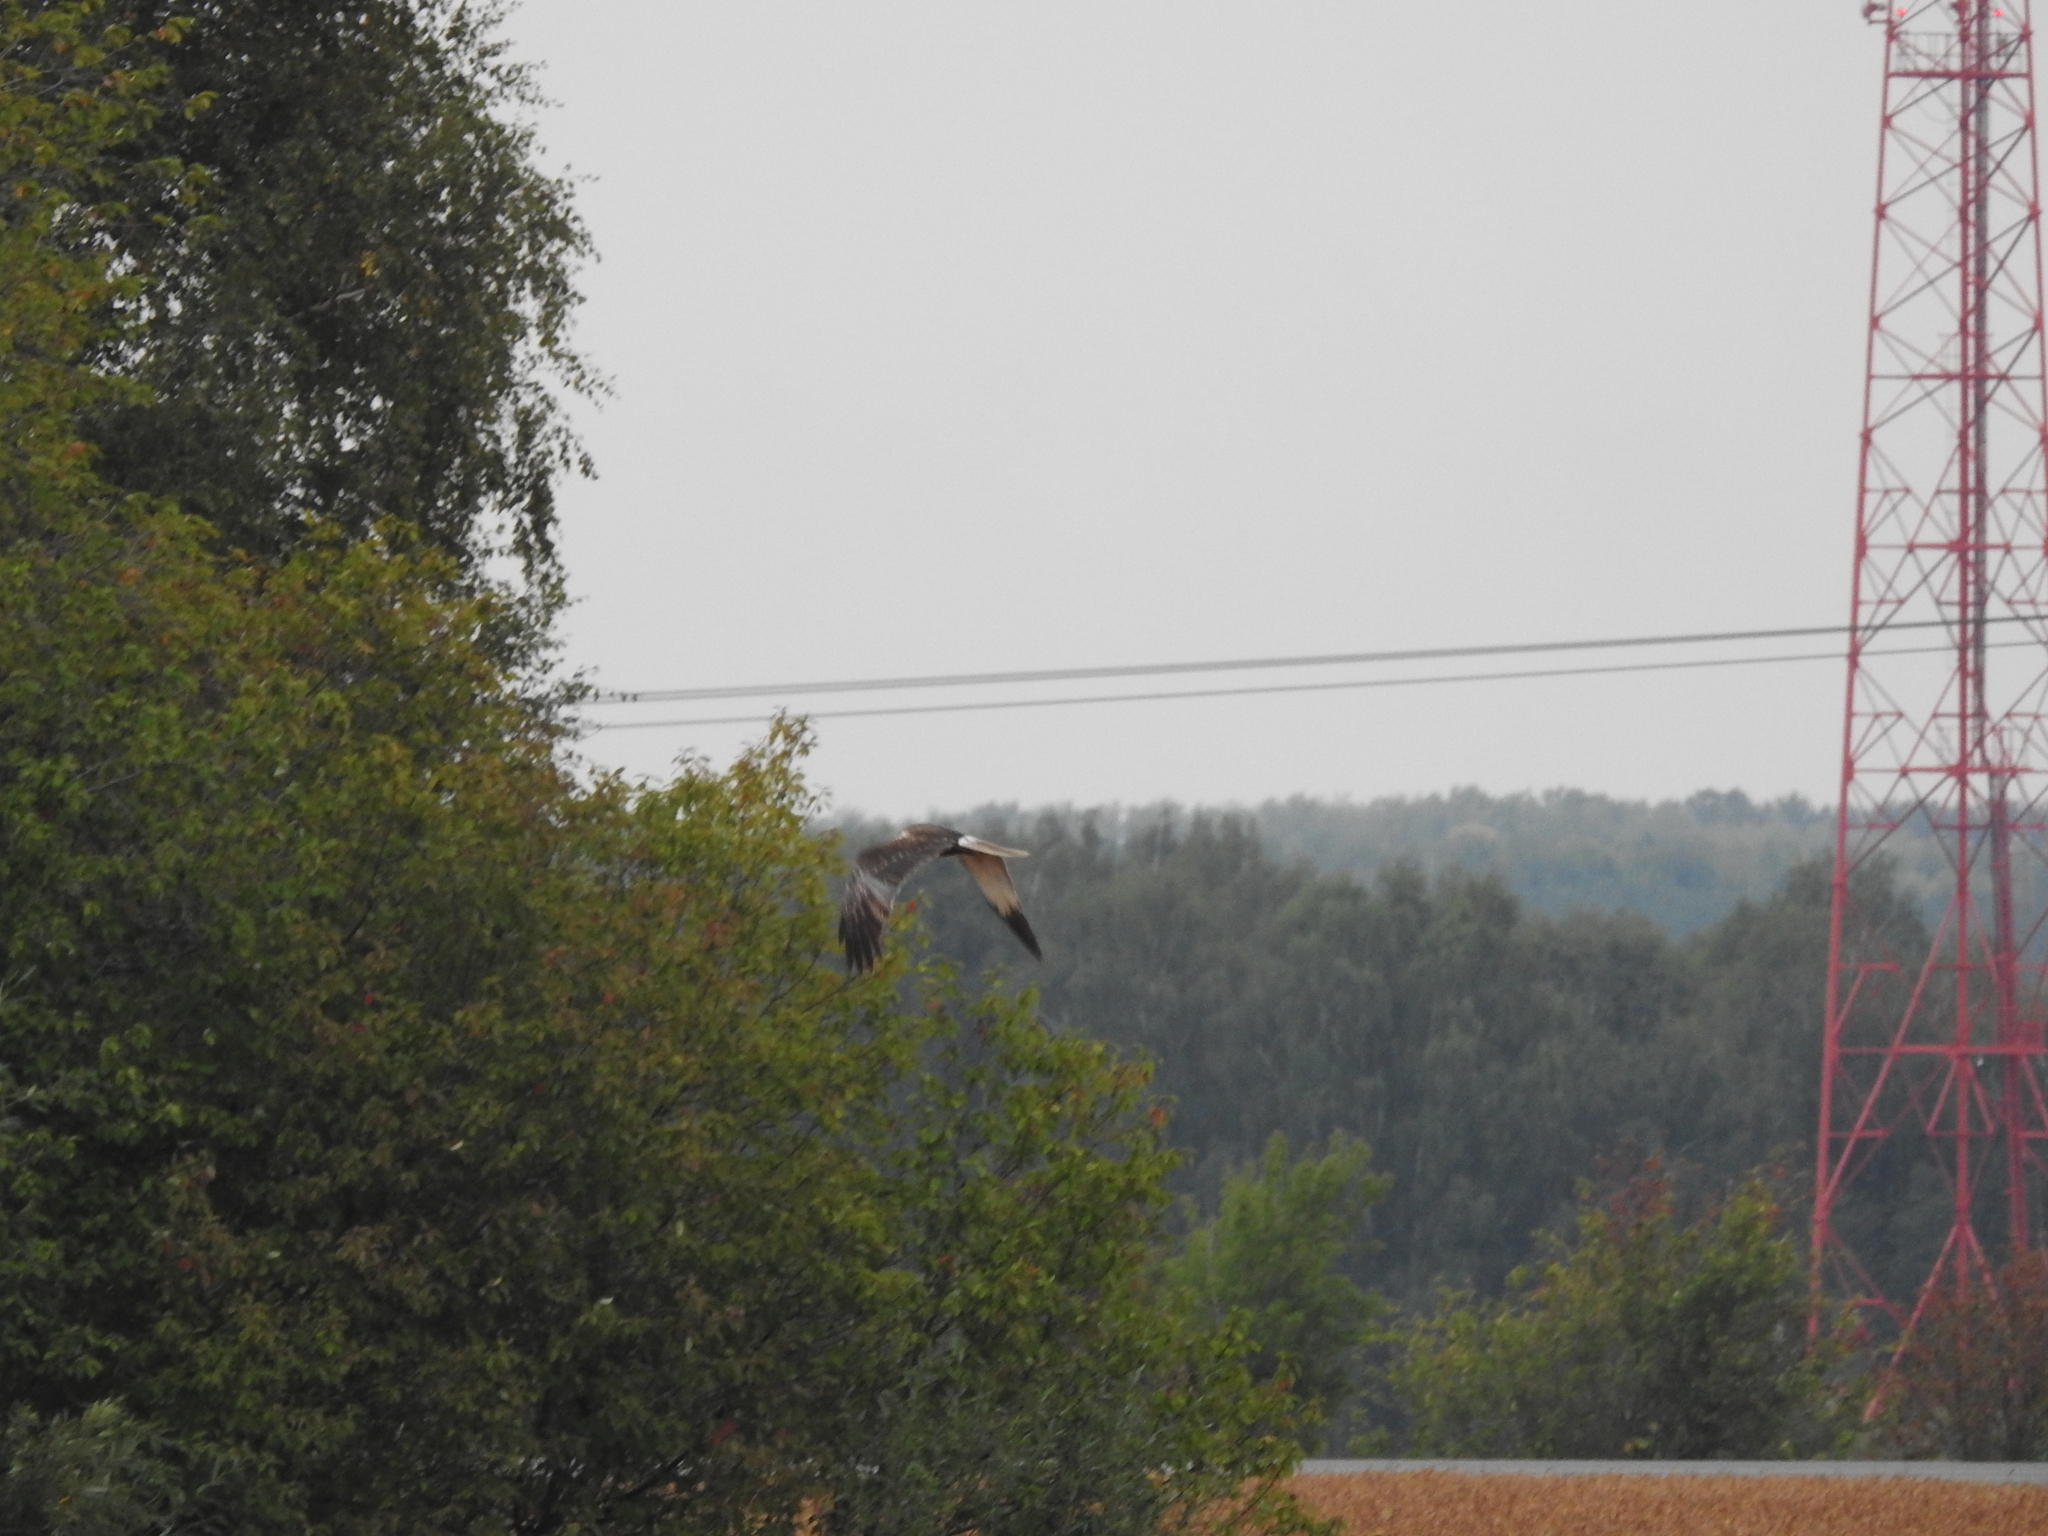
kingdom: Animalia
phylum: Chordata
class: Aves
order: Accipitriformes
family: Accipitridae
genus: Circus
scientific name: Circus aeruginosus
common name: Western marsh harrier
